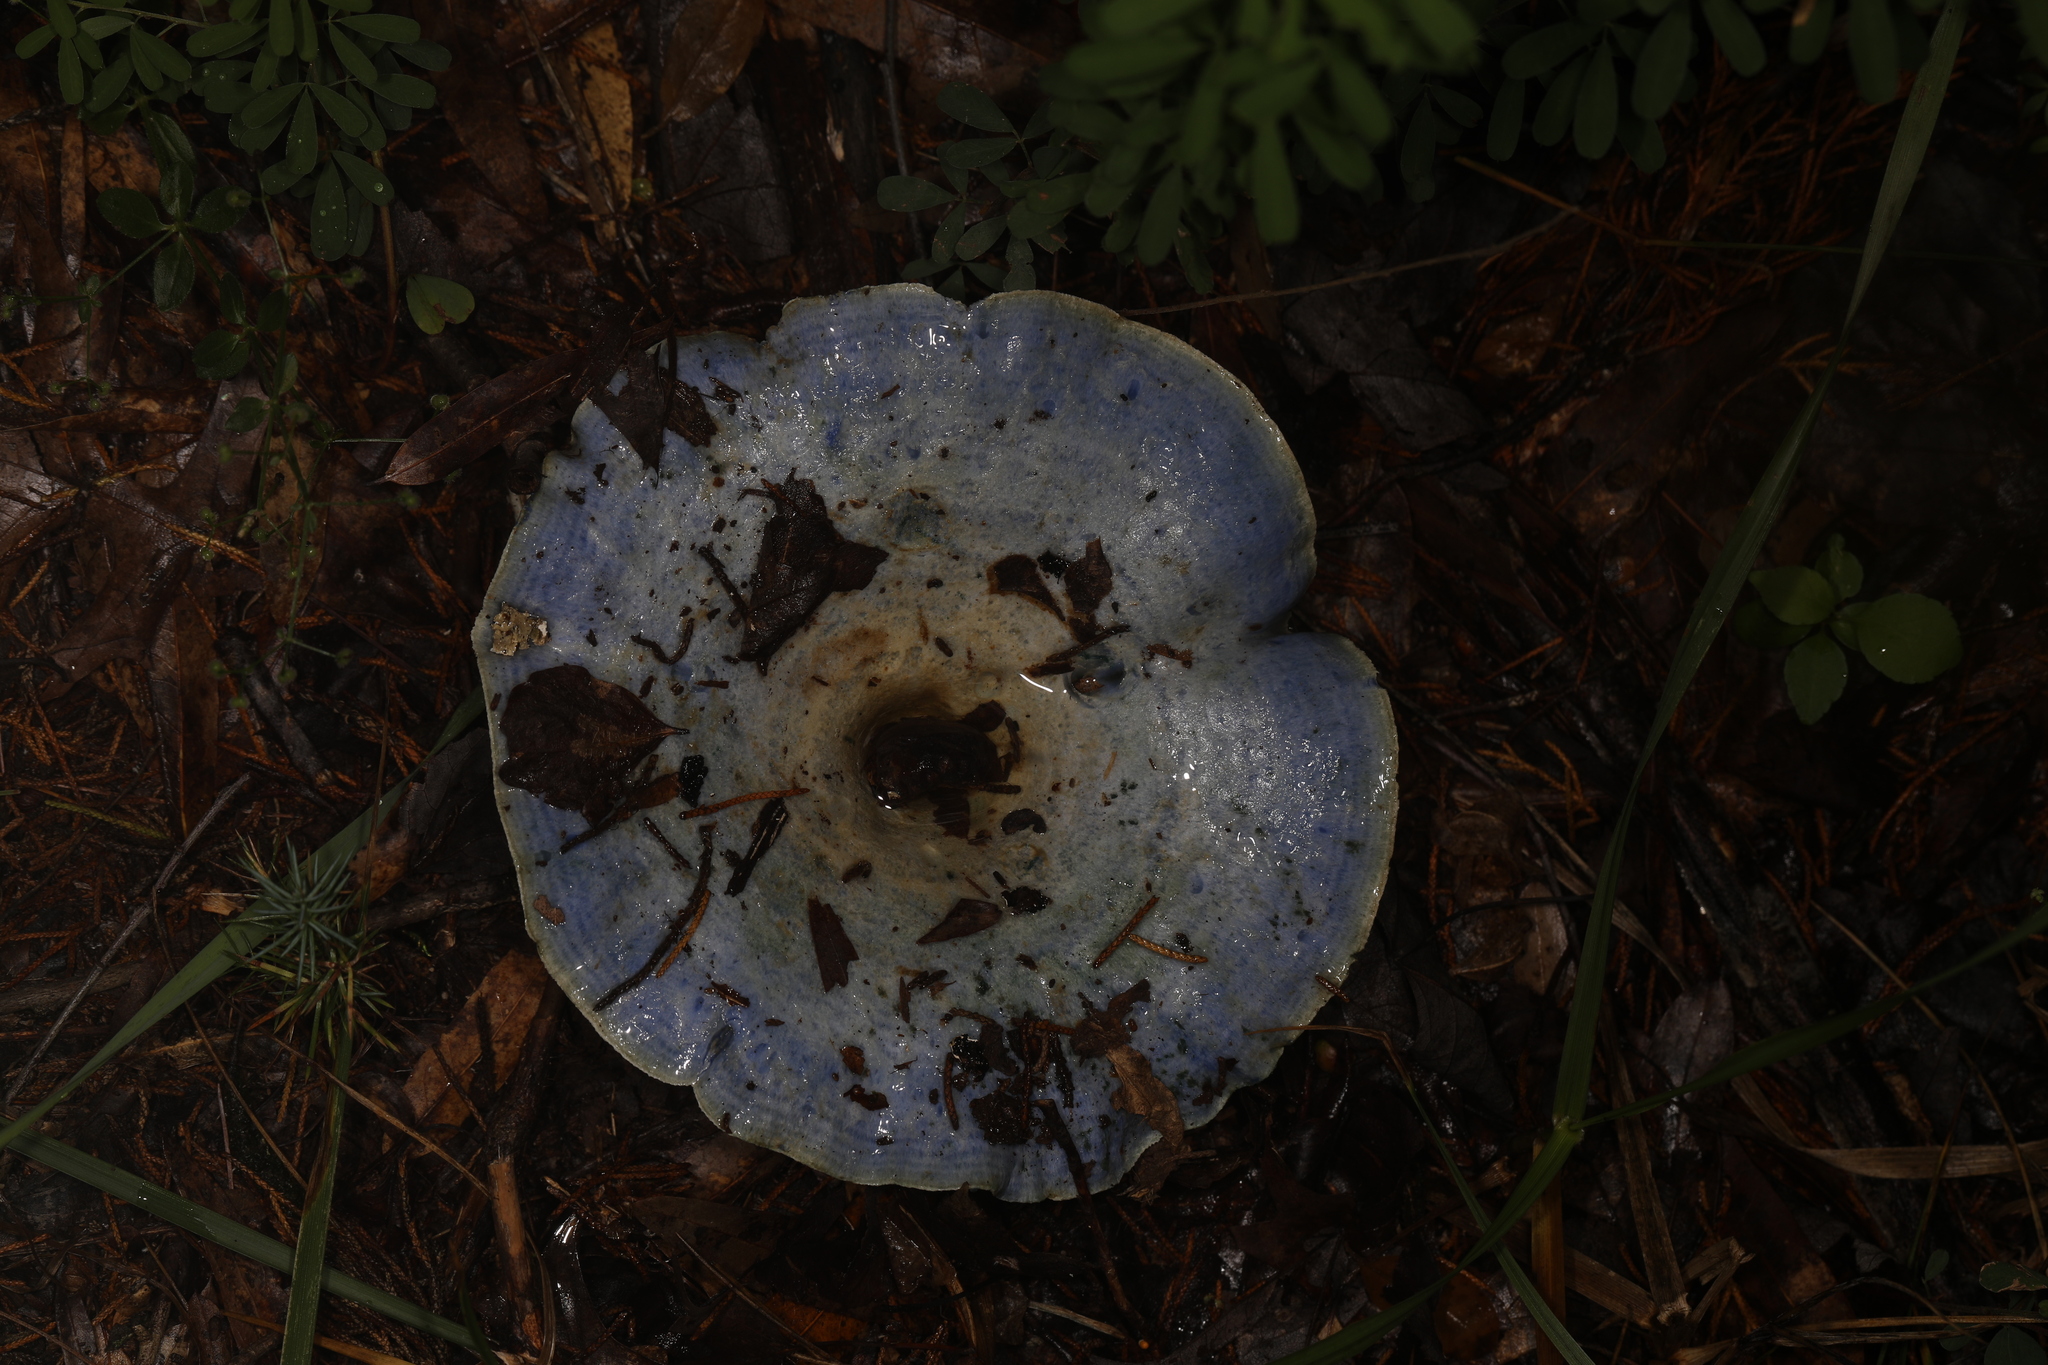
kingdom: Fungi
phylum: Basidiomycota
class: Agaricomycetes
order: Russulales
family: Russulaceae
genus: Lactarius
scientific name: Lactarius indigo
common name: Indigo milk cap
